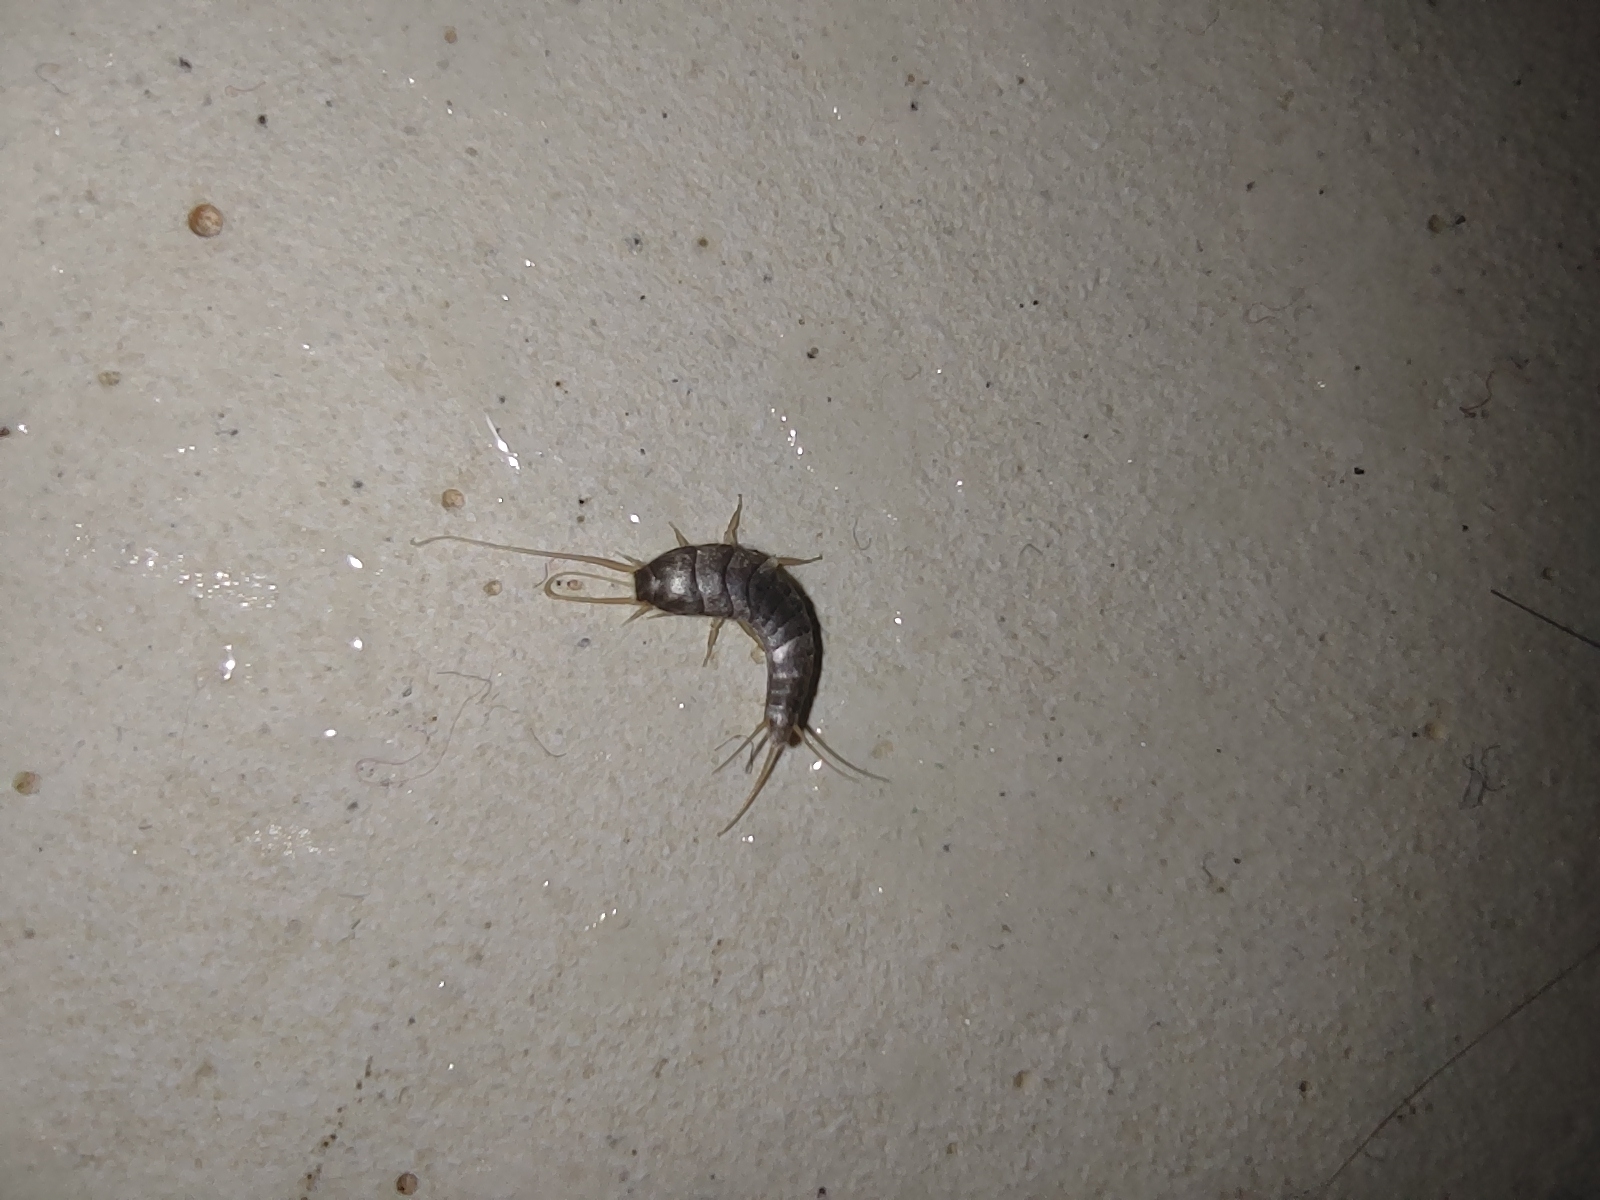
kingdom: Animalia
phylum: Arthropoda
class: Insecta
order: Zygentoma
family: Lepismatidae
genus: Lepisma
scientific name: Lepisma saccharinum
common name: Silverfish
